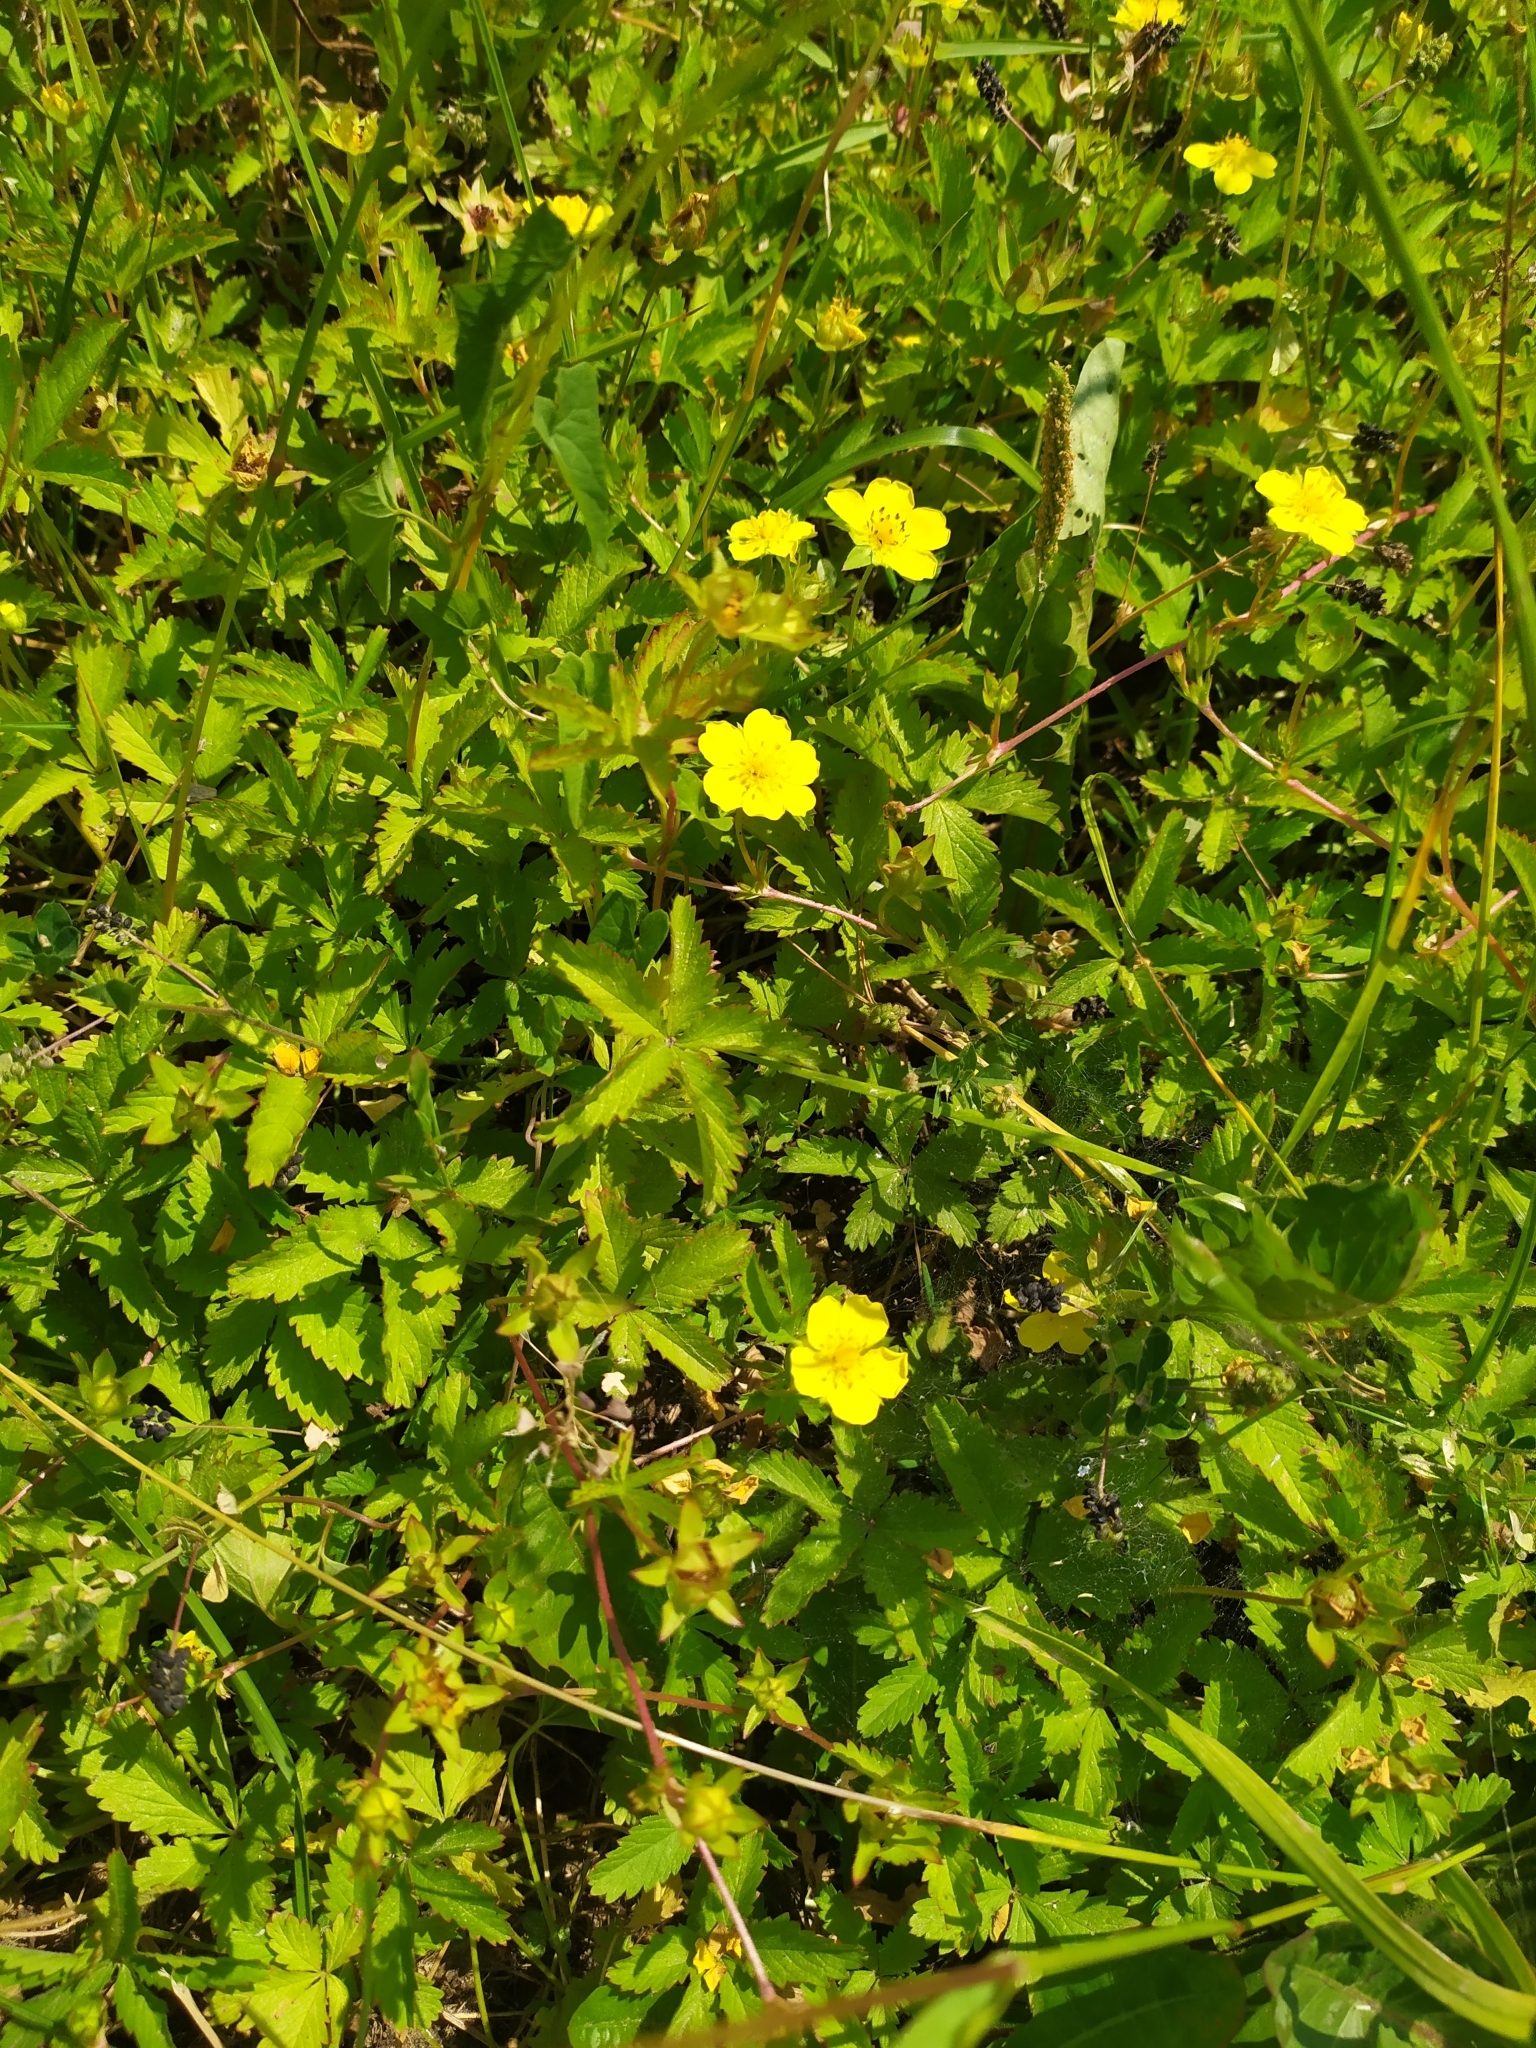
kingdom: Plantae
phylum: Tracheophyta
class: Magnoliopsida
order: Rosales
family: Rosaceae
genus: Potentilla
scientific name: Potentilla reptans
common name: Creeping cinquefoil
